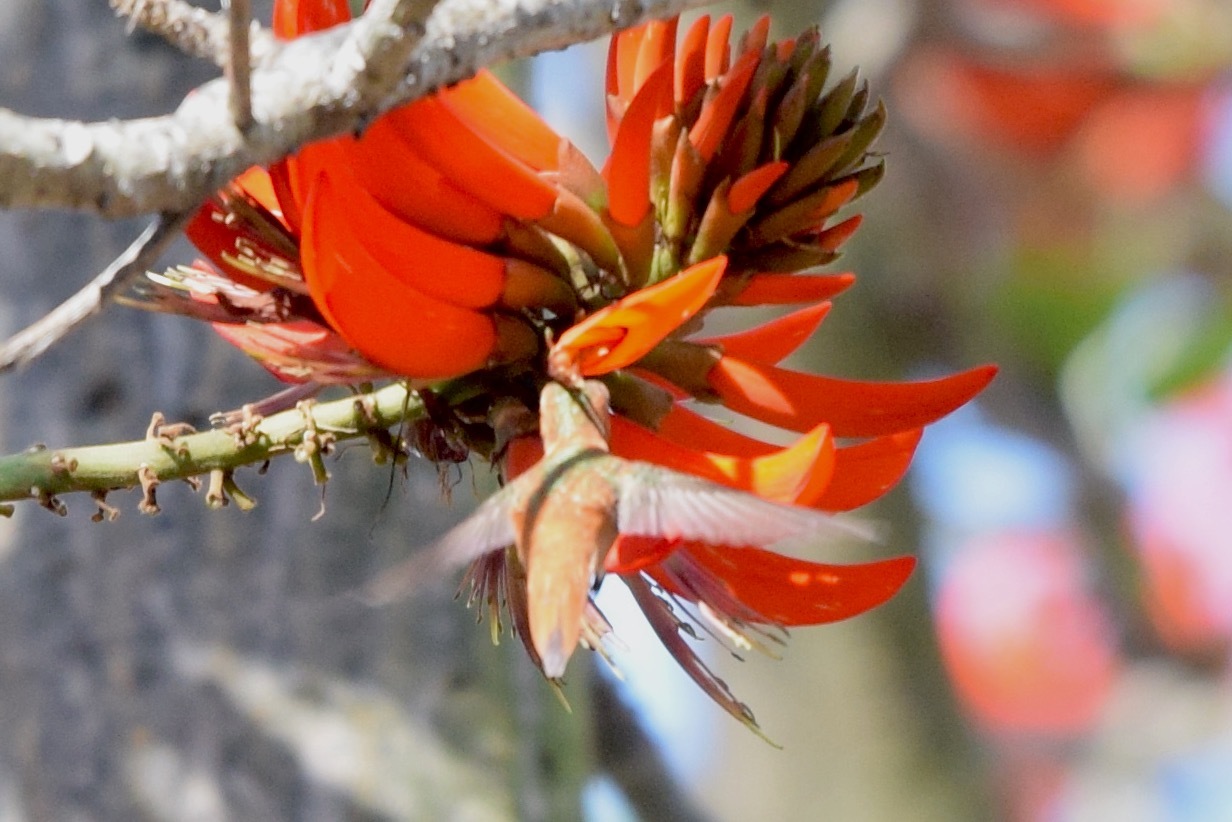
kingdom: Animalia
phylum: Chordata
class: Aves
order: Apodiformes
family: Trochilidae
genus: Selasphorus
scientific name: Selasphorus sasin
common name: Allen's hummingbird
